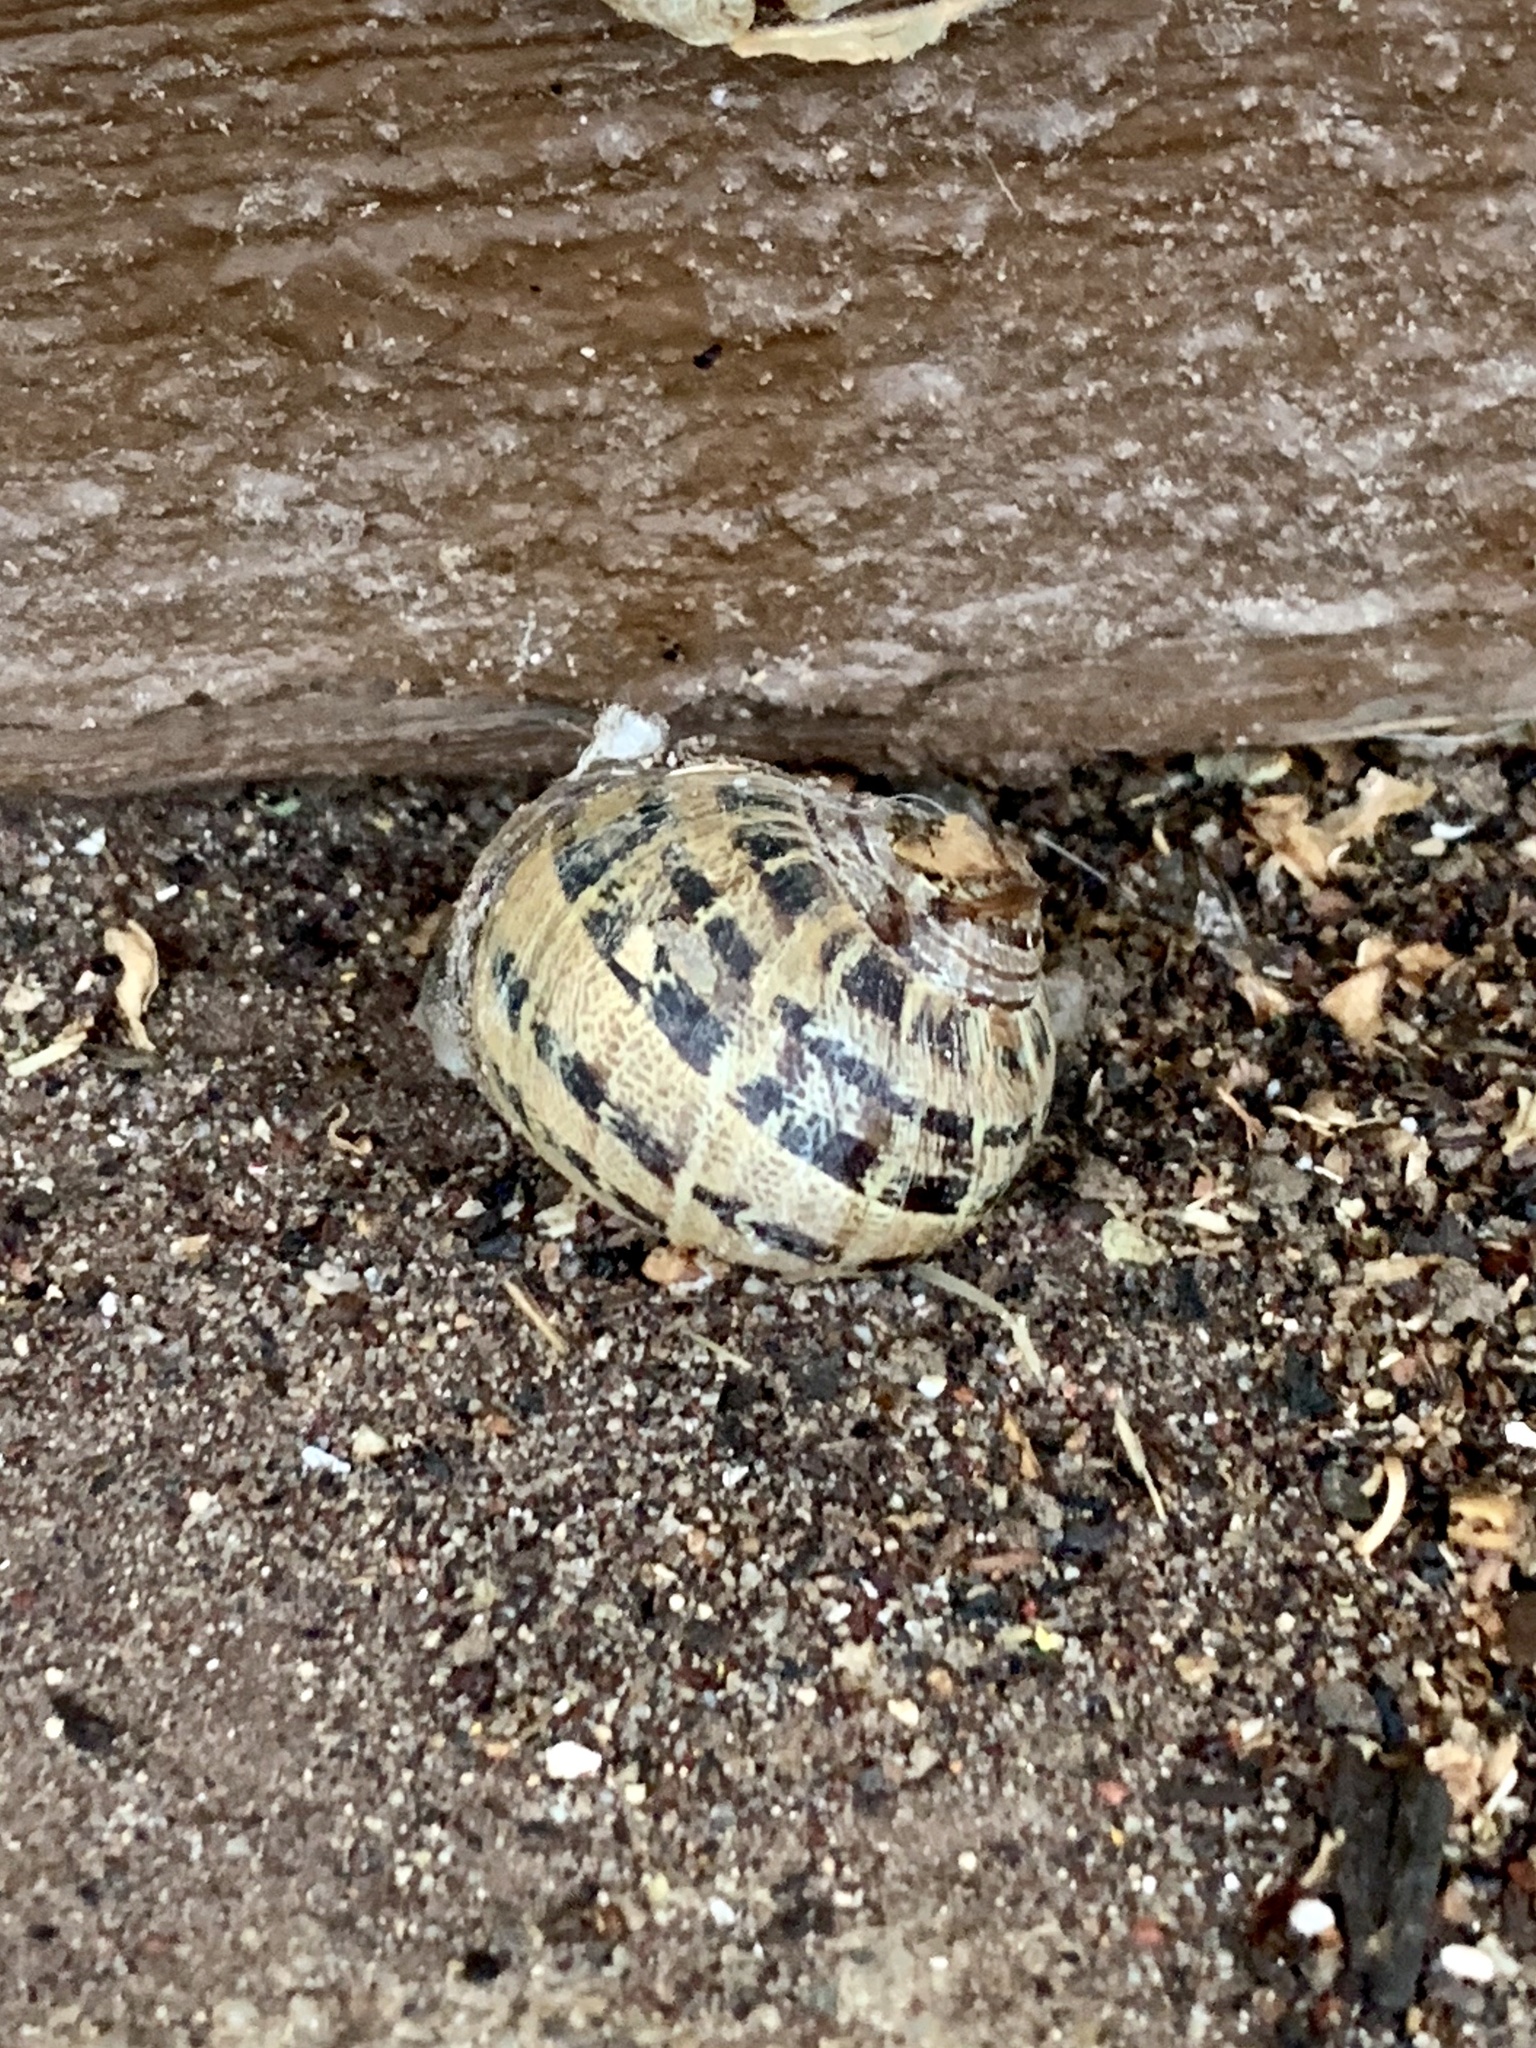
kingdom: Animalia
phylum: Mollusca
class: Gastropoda
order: Stylommatophora
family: Helicidae
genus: Cornu
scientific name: Cornu aspersum
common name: Brown garden snail
